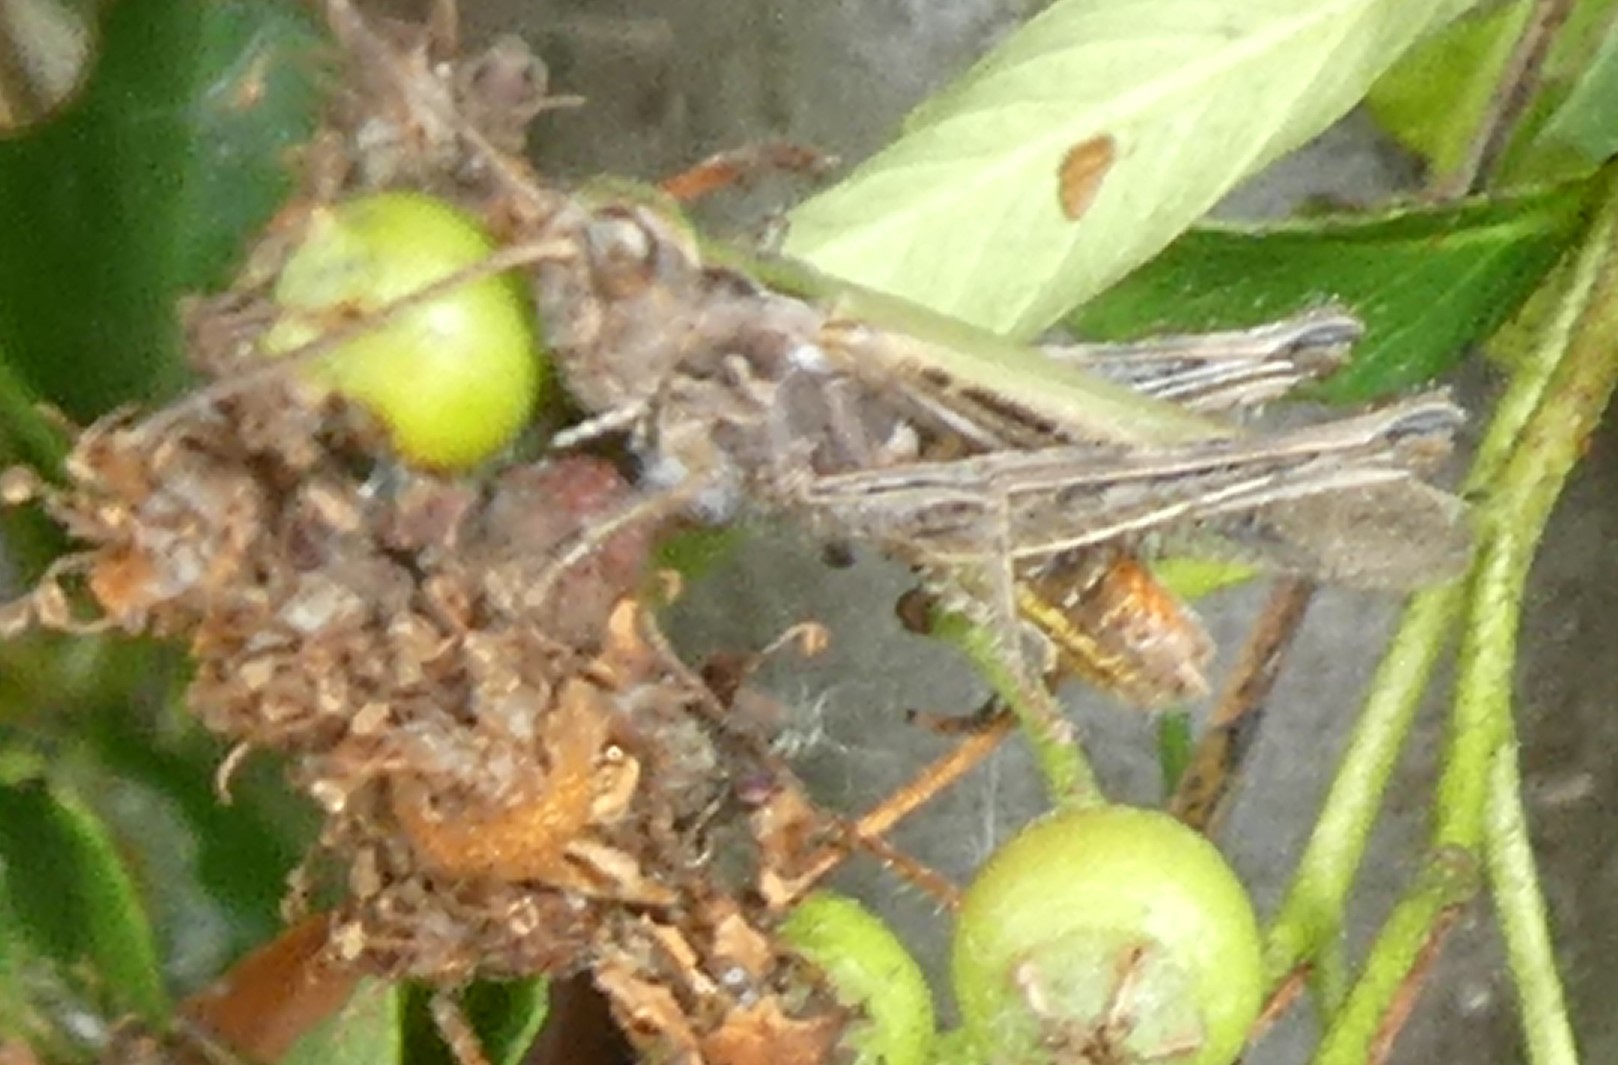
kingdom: Animalia
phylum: Arthropoda
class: Insecta
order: Orthoptera
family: Acrididae
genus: Chorthippus
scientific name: Chorthippus brunneus
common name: Field grasshopper
